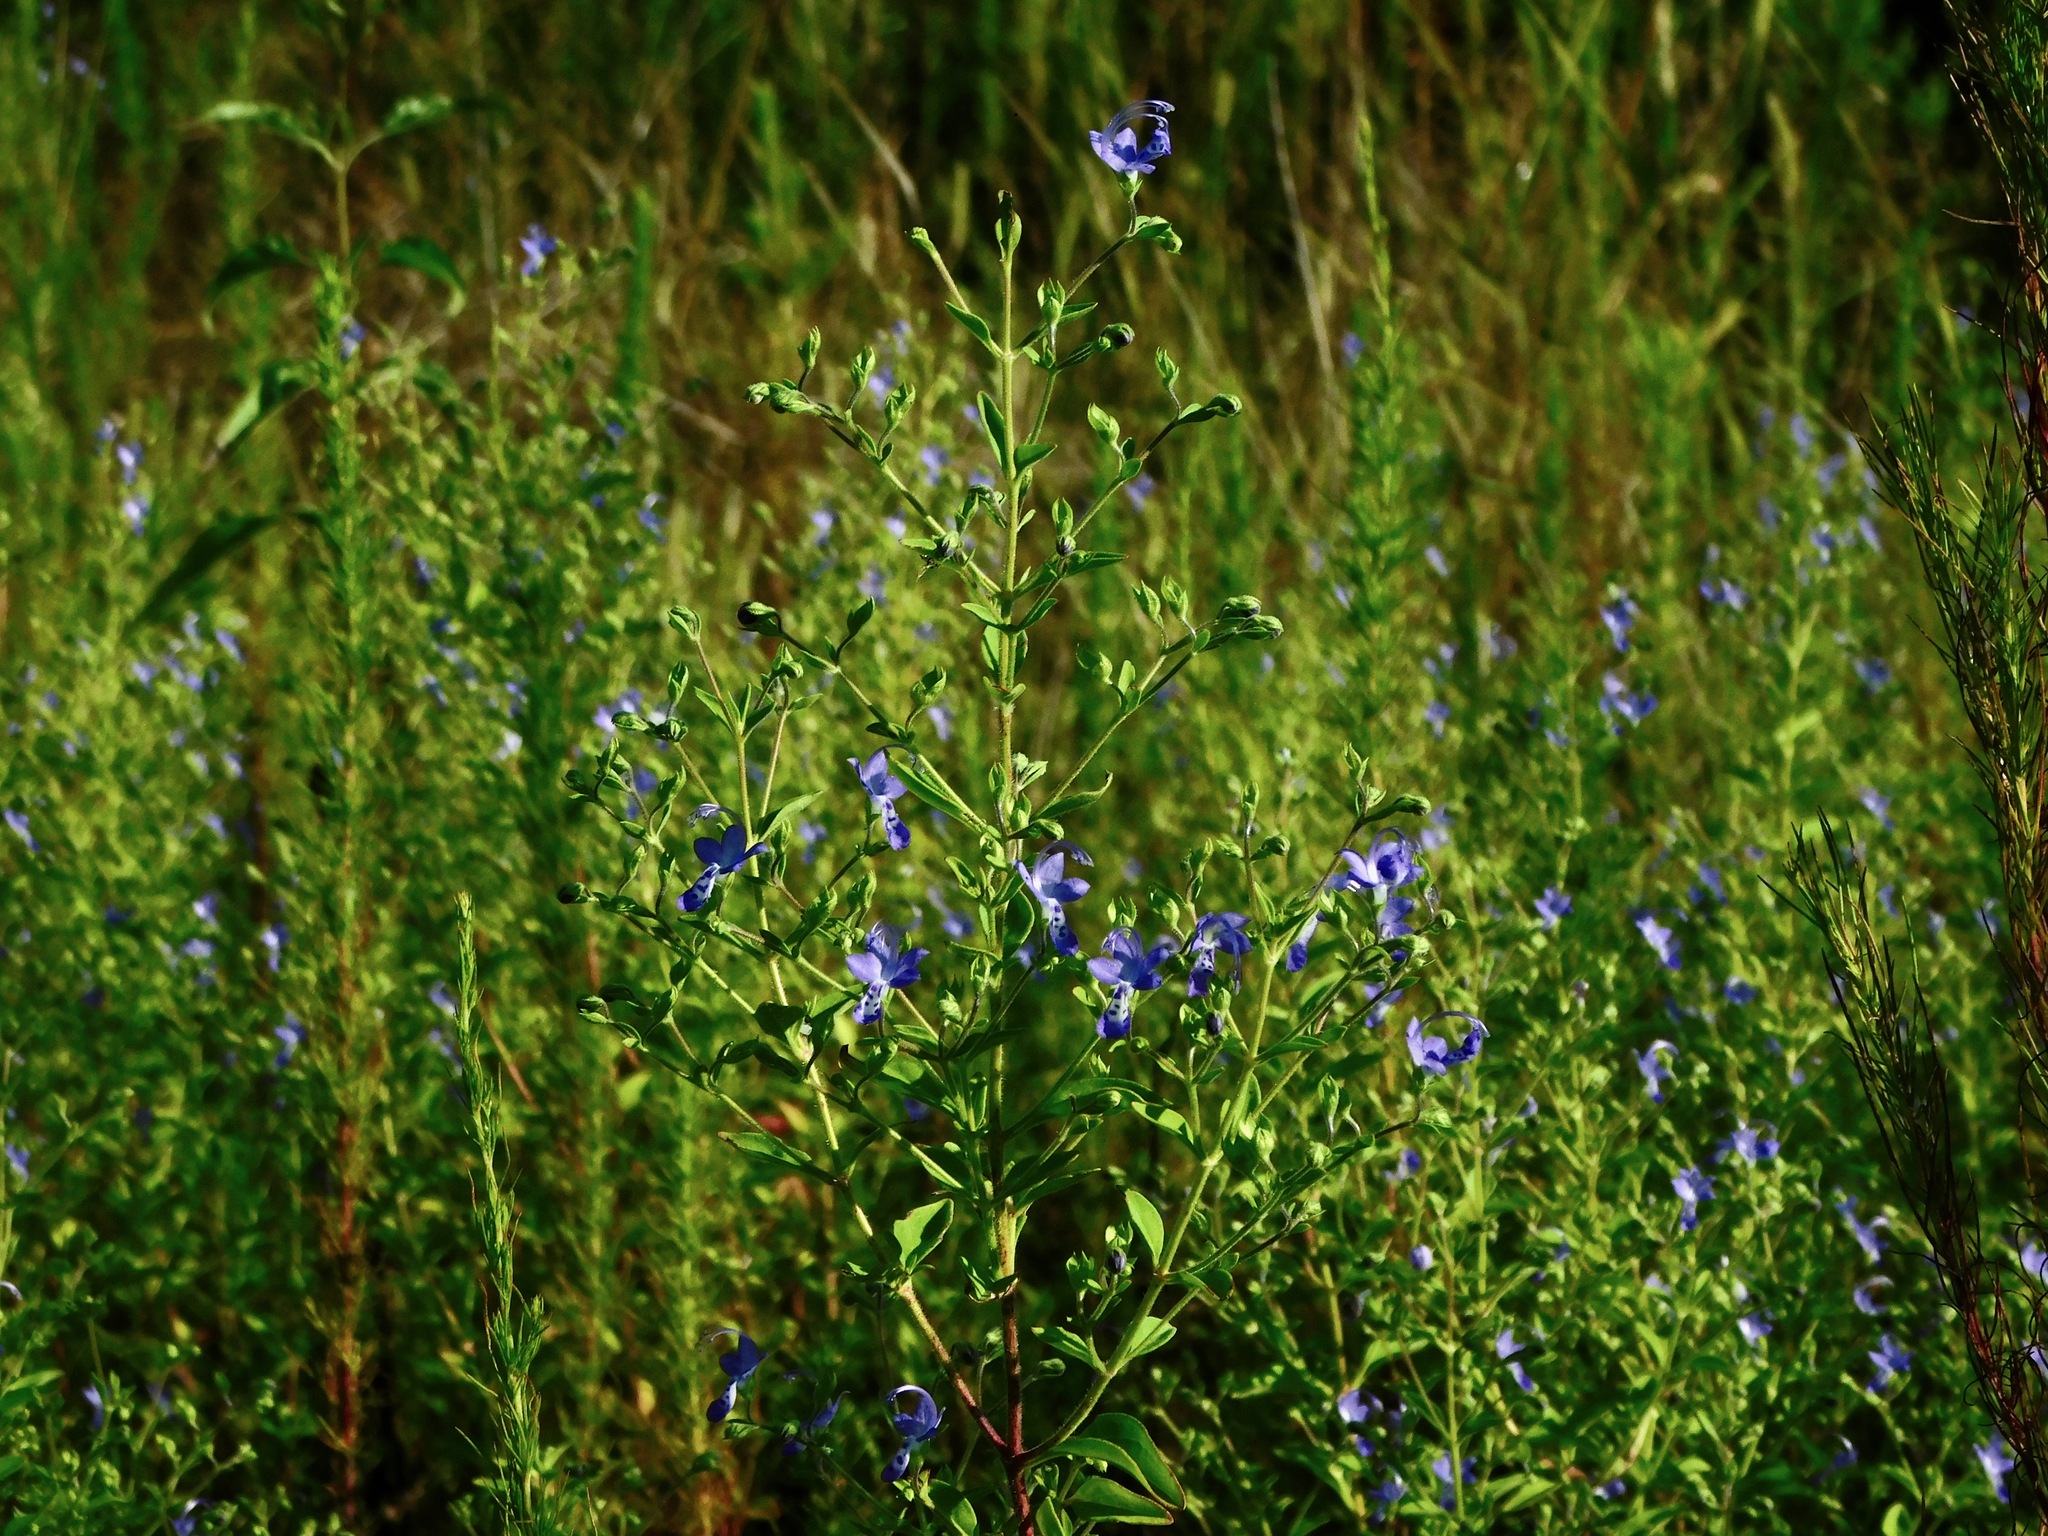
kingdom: Plantae
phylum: Tracheophyta
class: Magnoliopsida
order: Lamiales
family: Lamiaceae
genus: Trichostema
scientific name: Trichostema dichotomum
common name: Bastard pennyroyal
